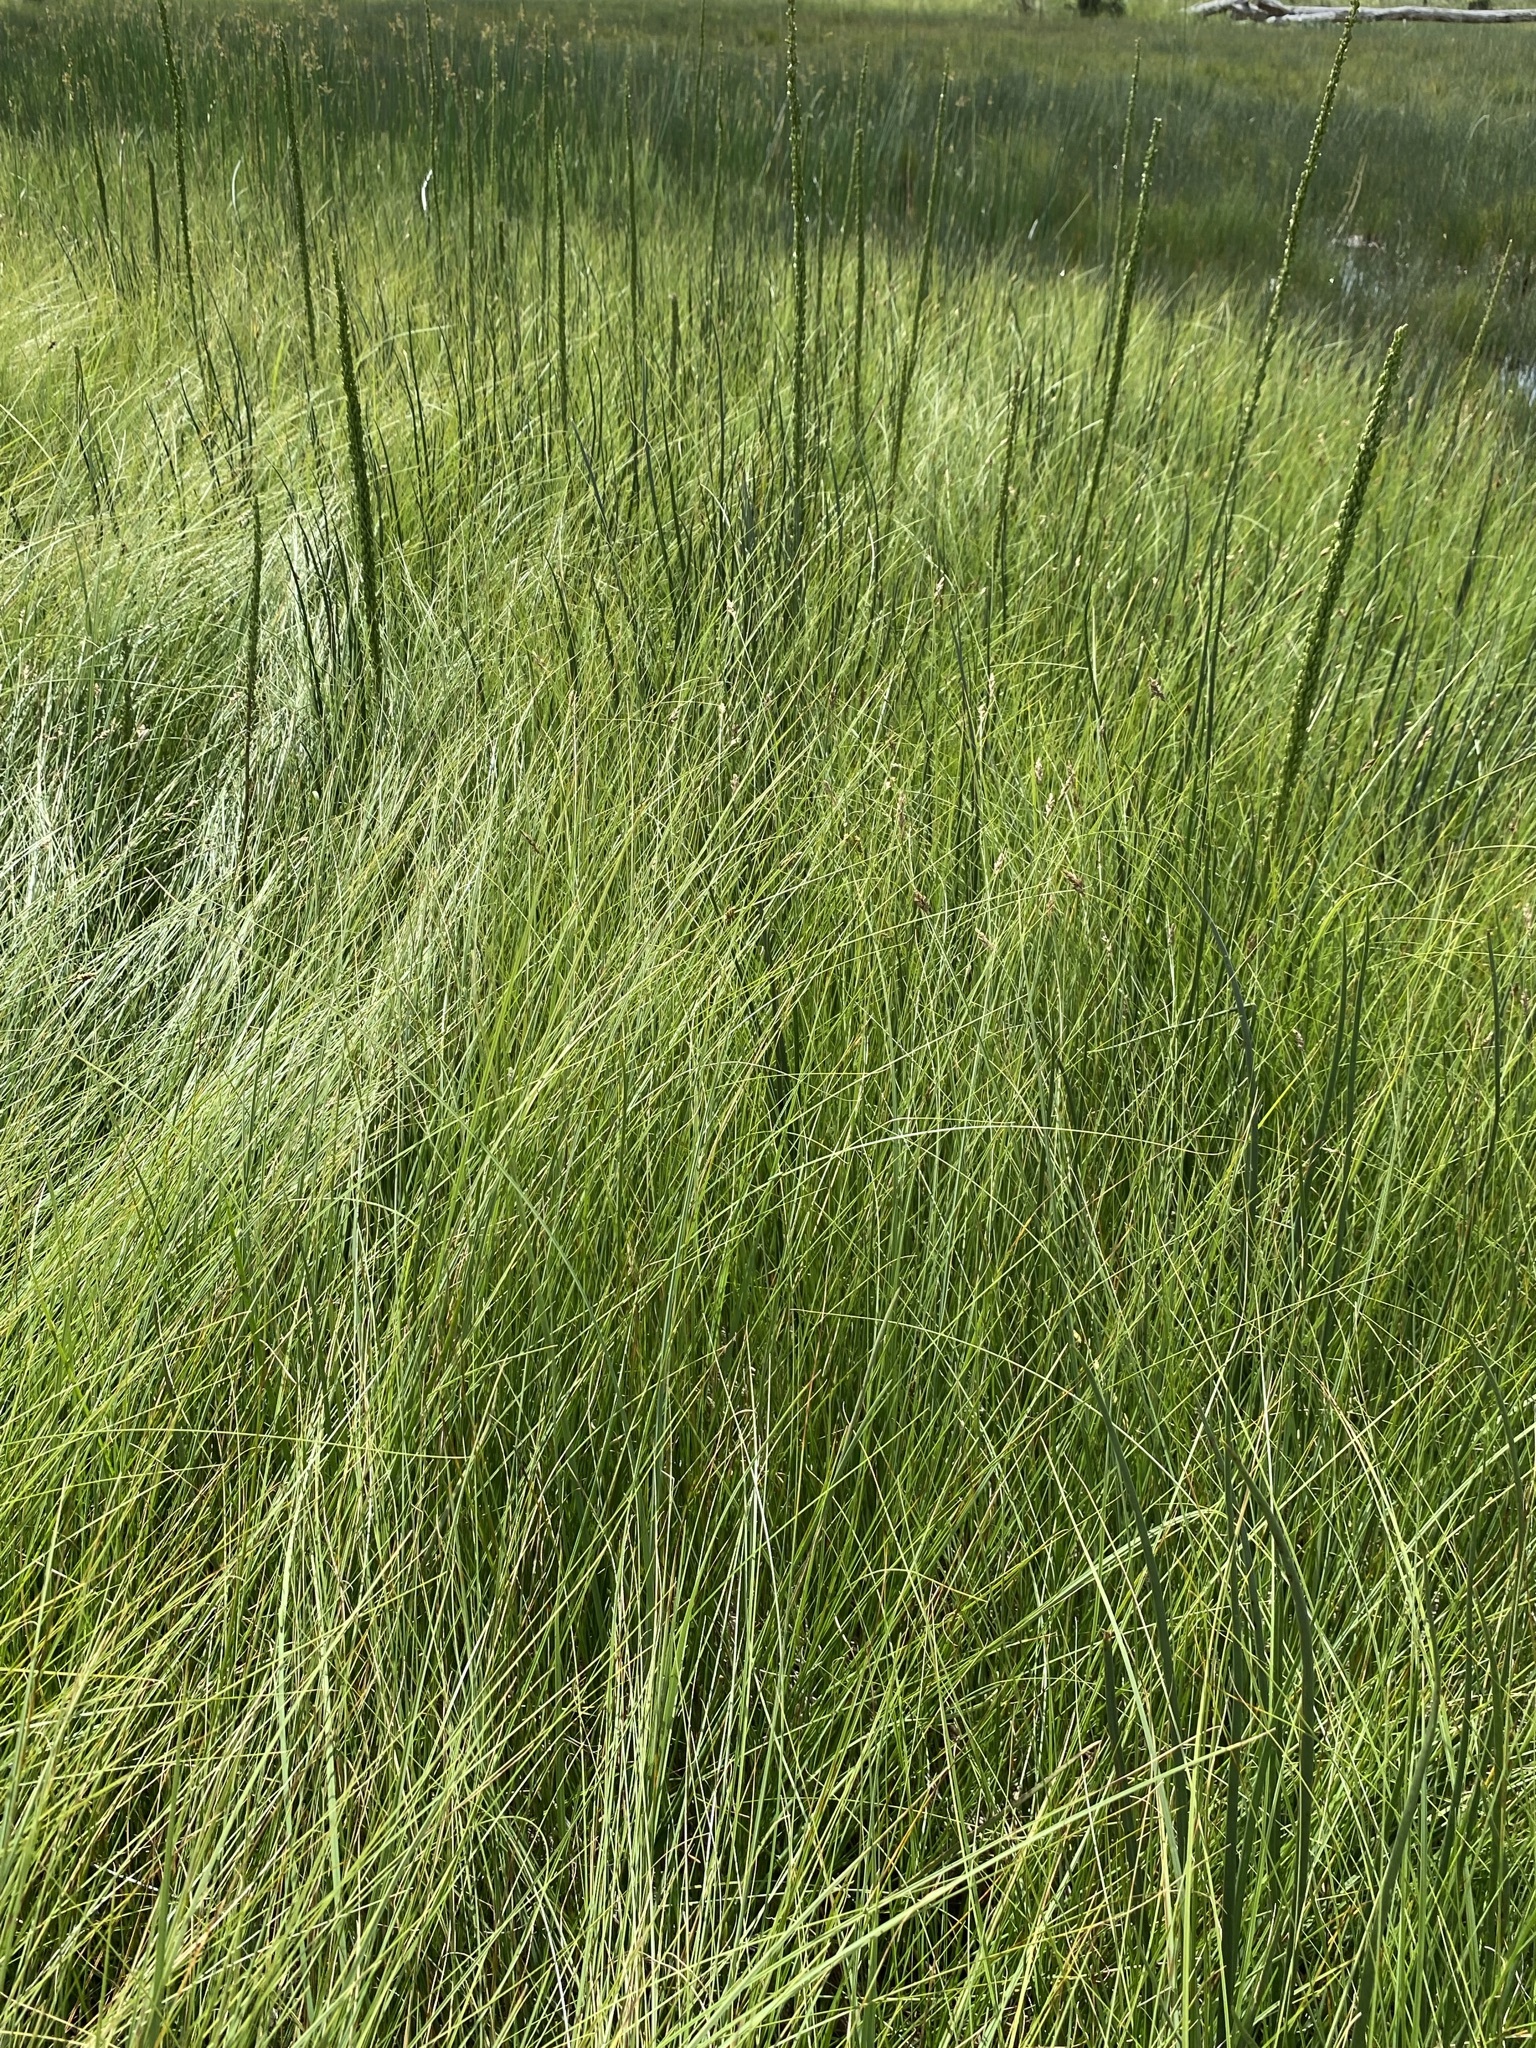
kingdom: Plantae
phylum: Tracheophyta
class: Liliopsida
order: Poales
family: Cyperaceae
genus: Carex
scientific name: Carex simulata
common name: Analogue sedge
